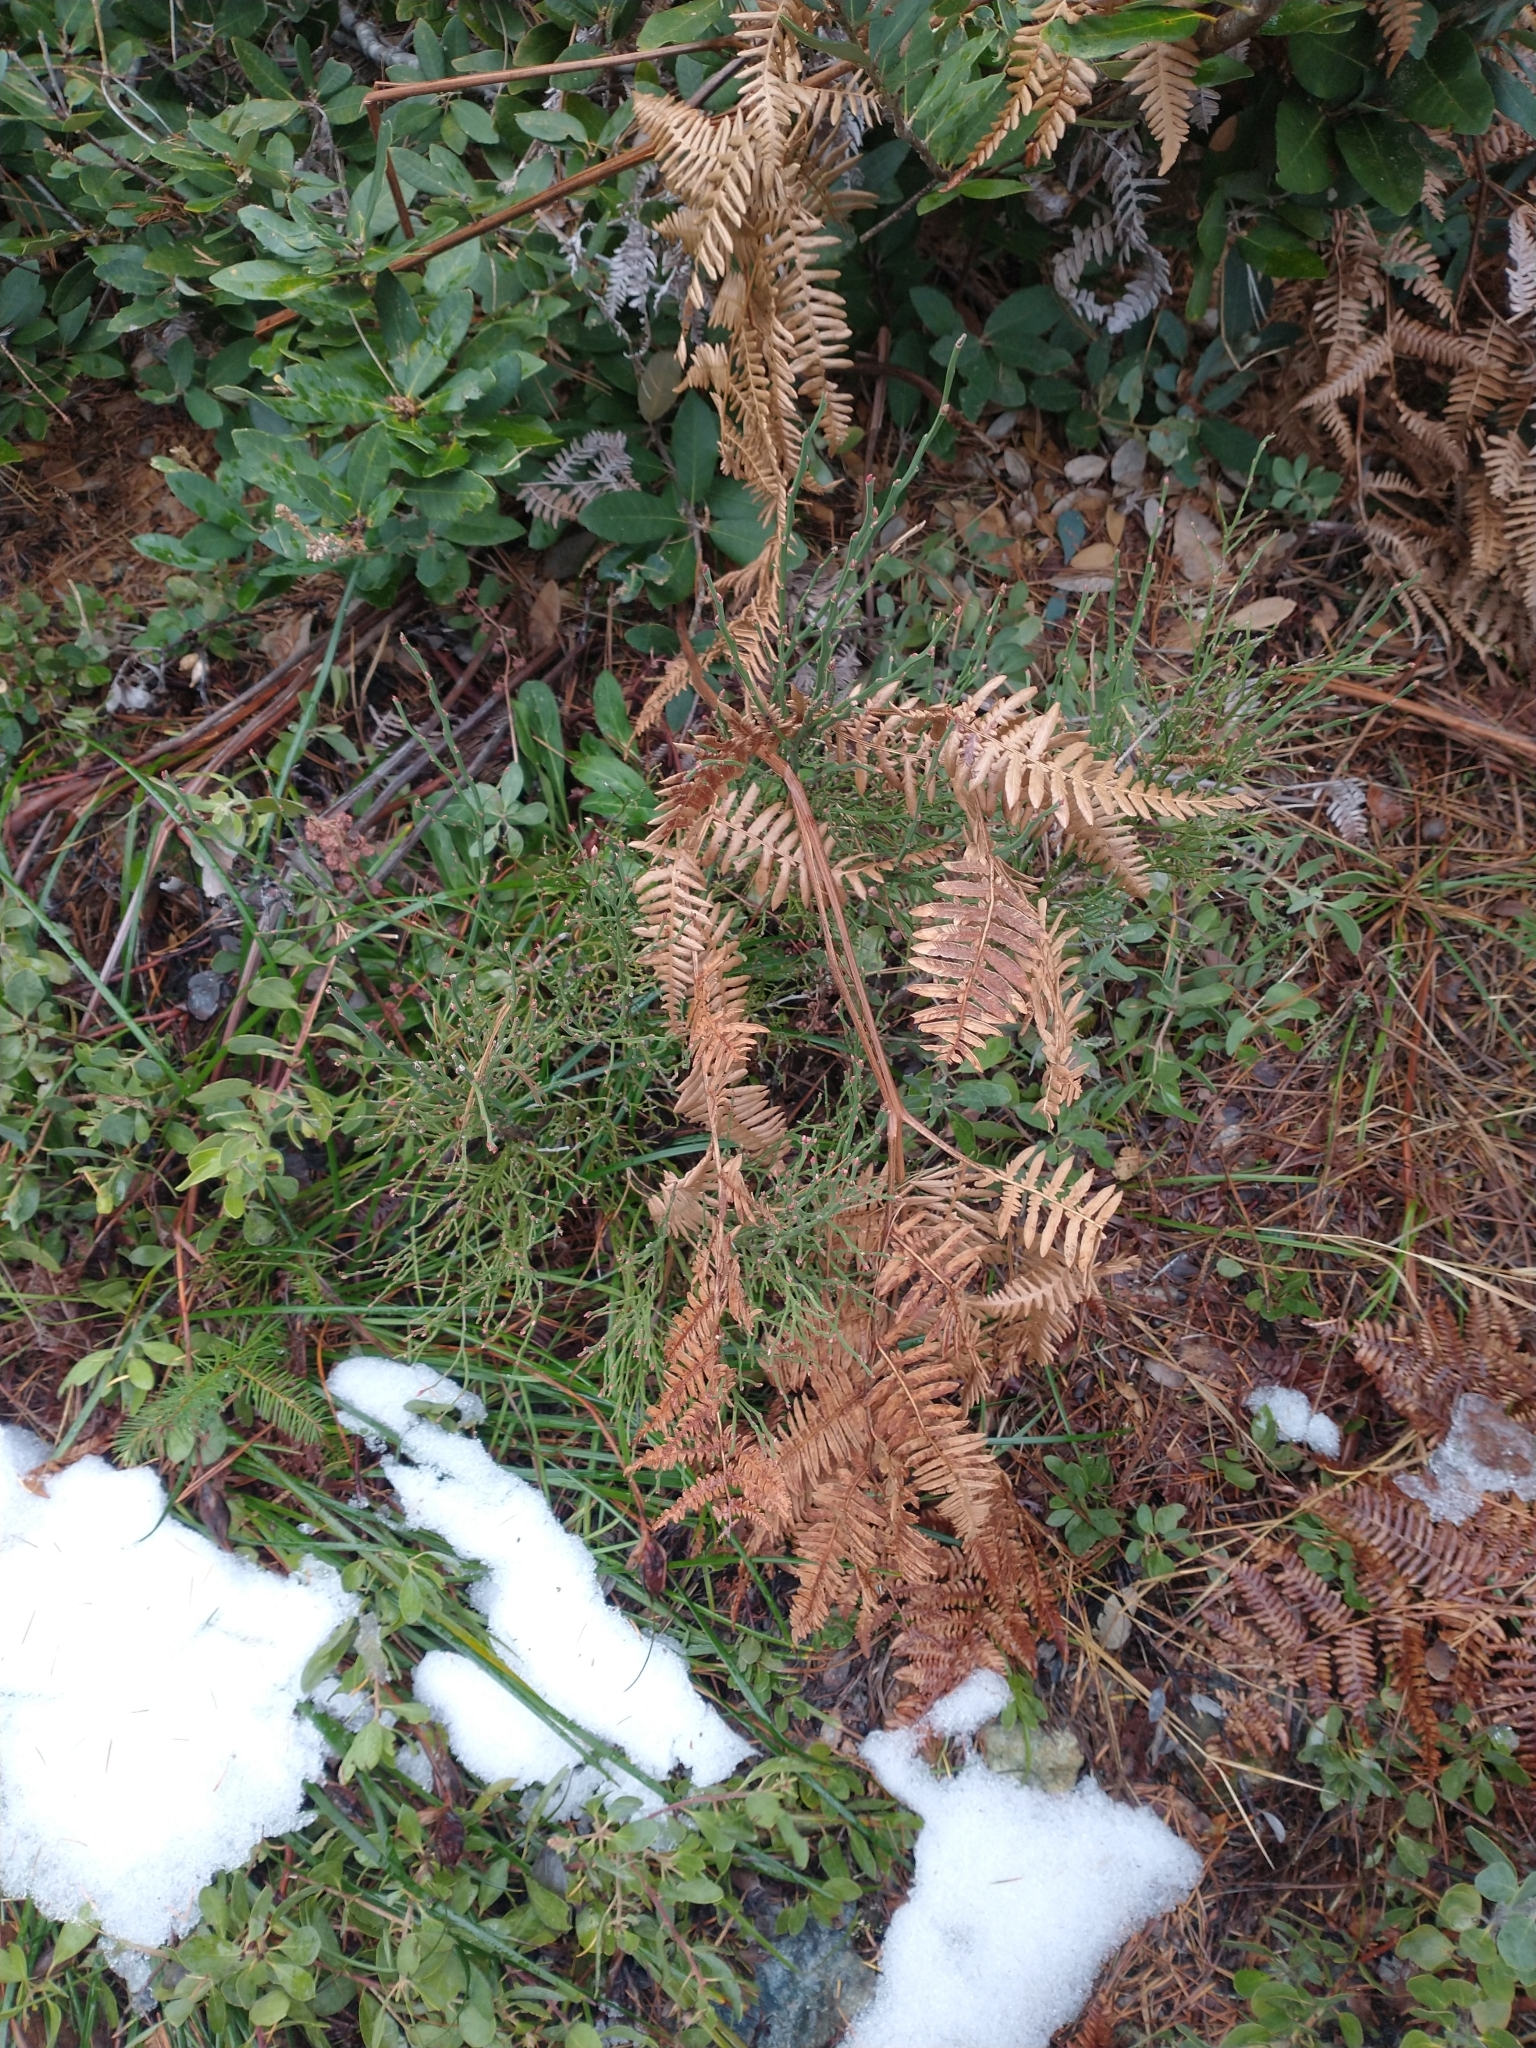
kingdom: Plantae
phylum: Tracheophyta
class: Polypodiopsida
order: Polypodiales
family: Dennstaedtiaceae
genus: Pteridium
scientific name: Pteridium aquilinum
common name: Bracken
